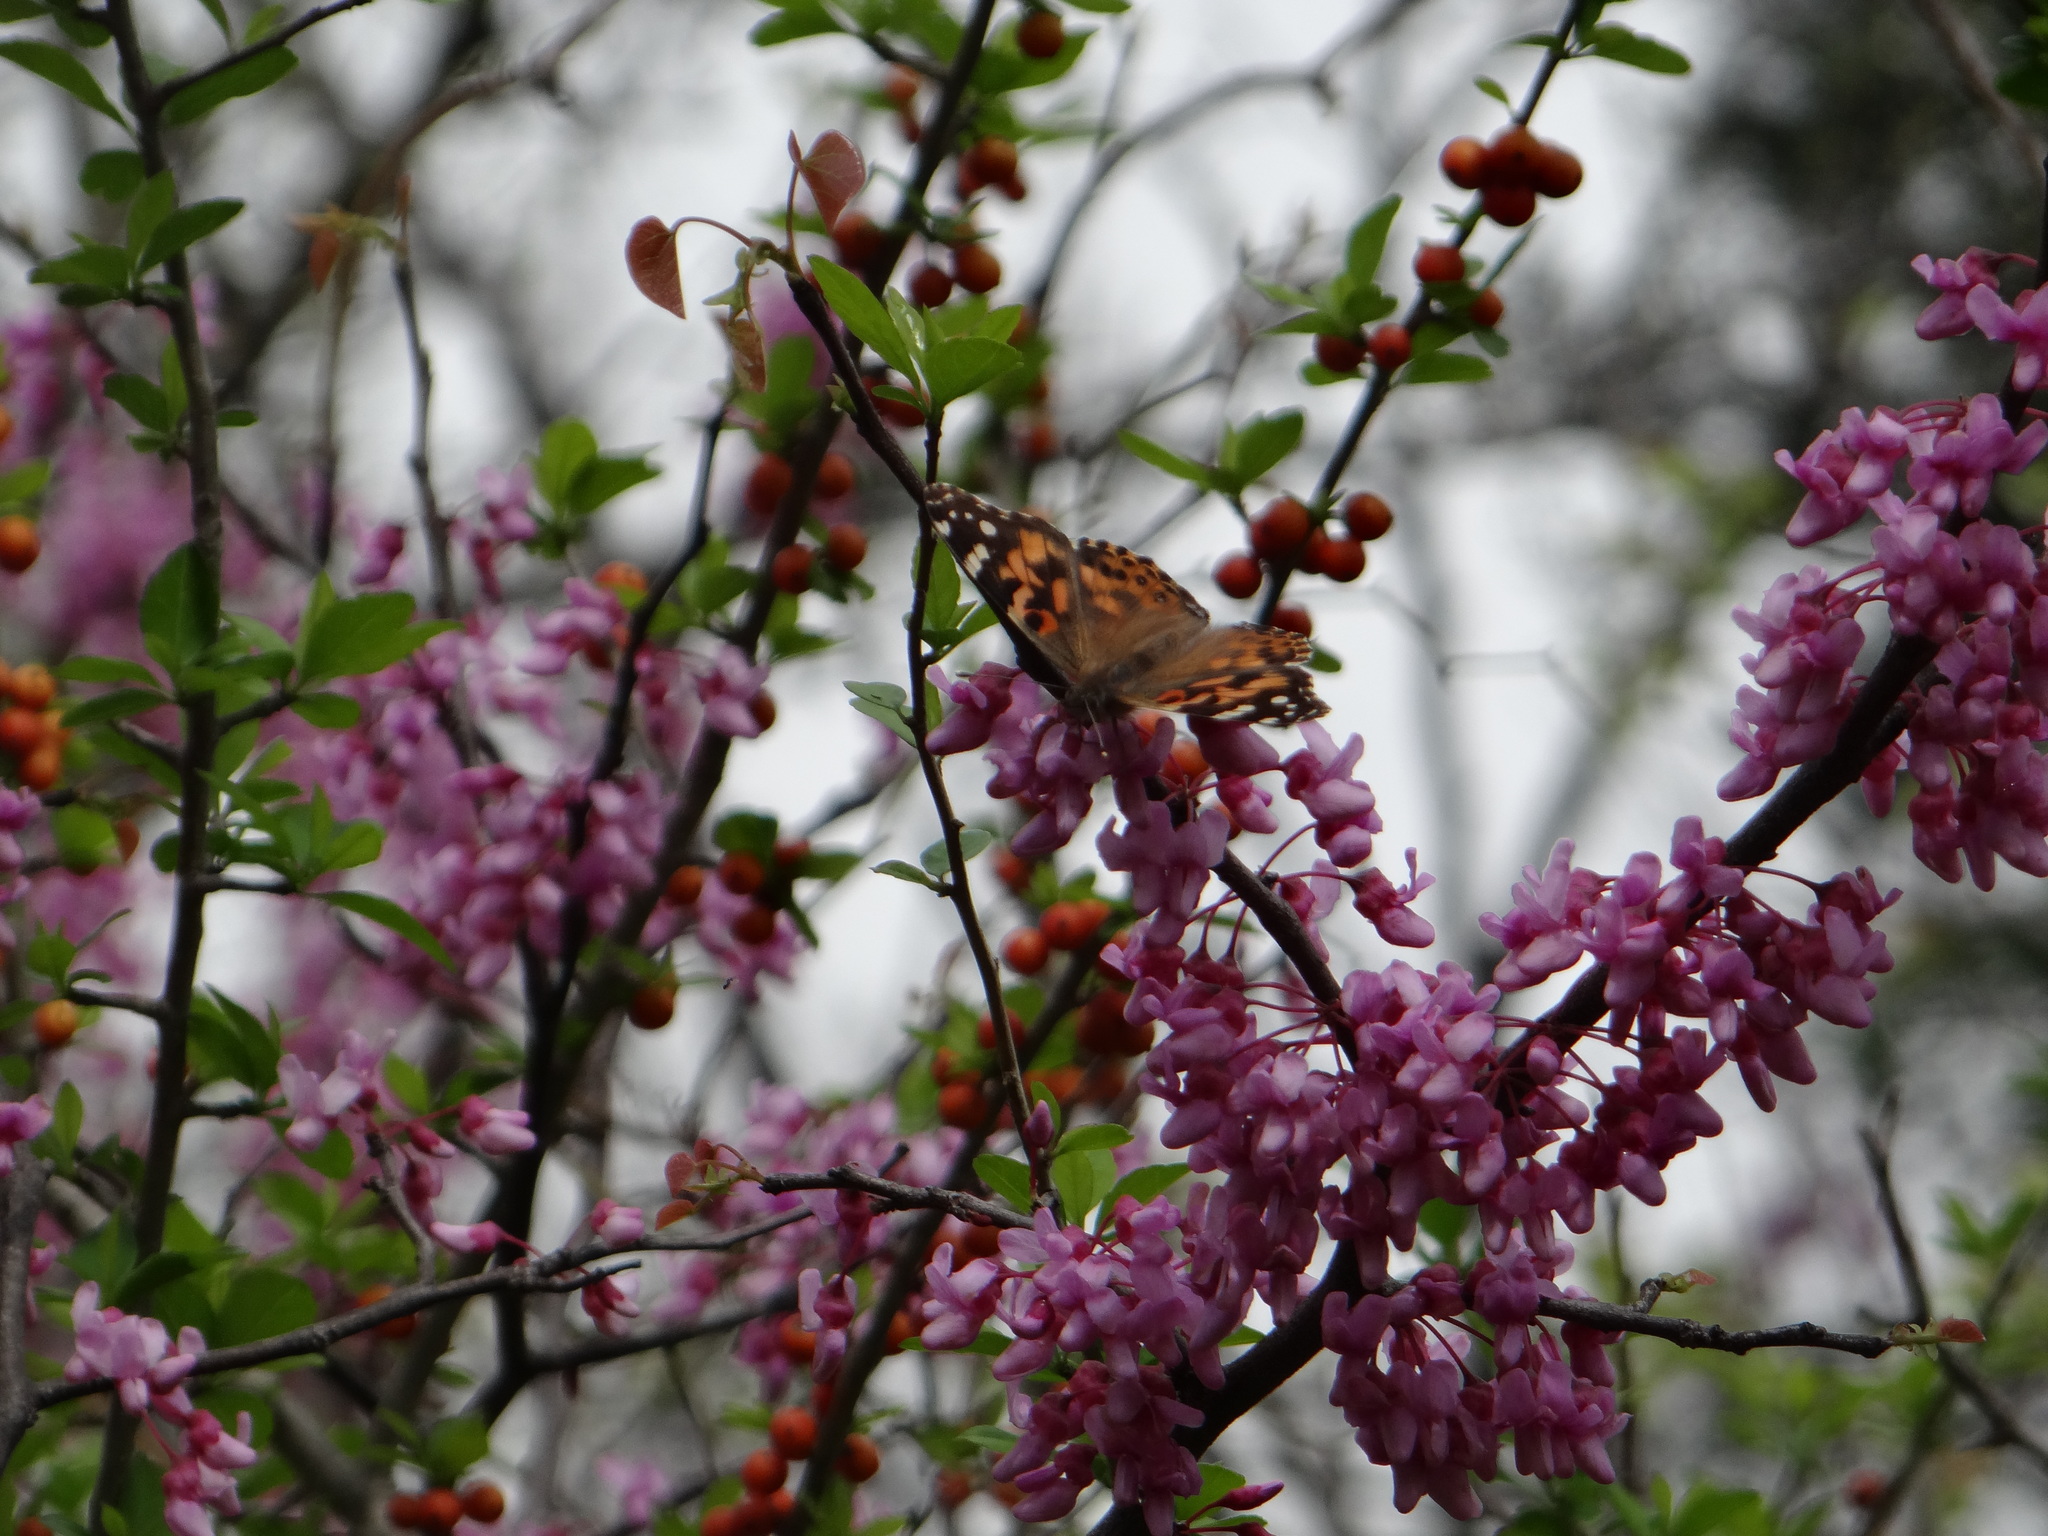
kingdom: Animalia
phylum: Arthropoda
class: Insecta
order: Lepidoptera
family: Nymphalidae
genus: Vanessa
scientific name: Vanessa cardui
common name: Painted lady
